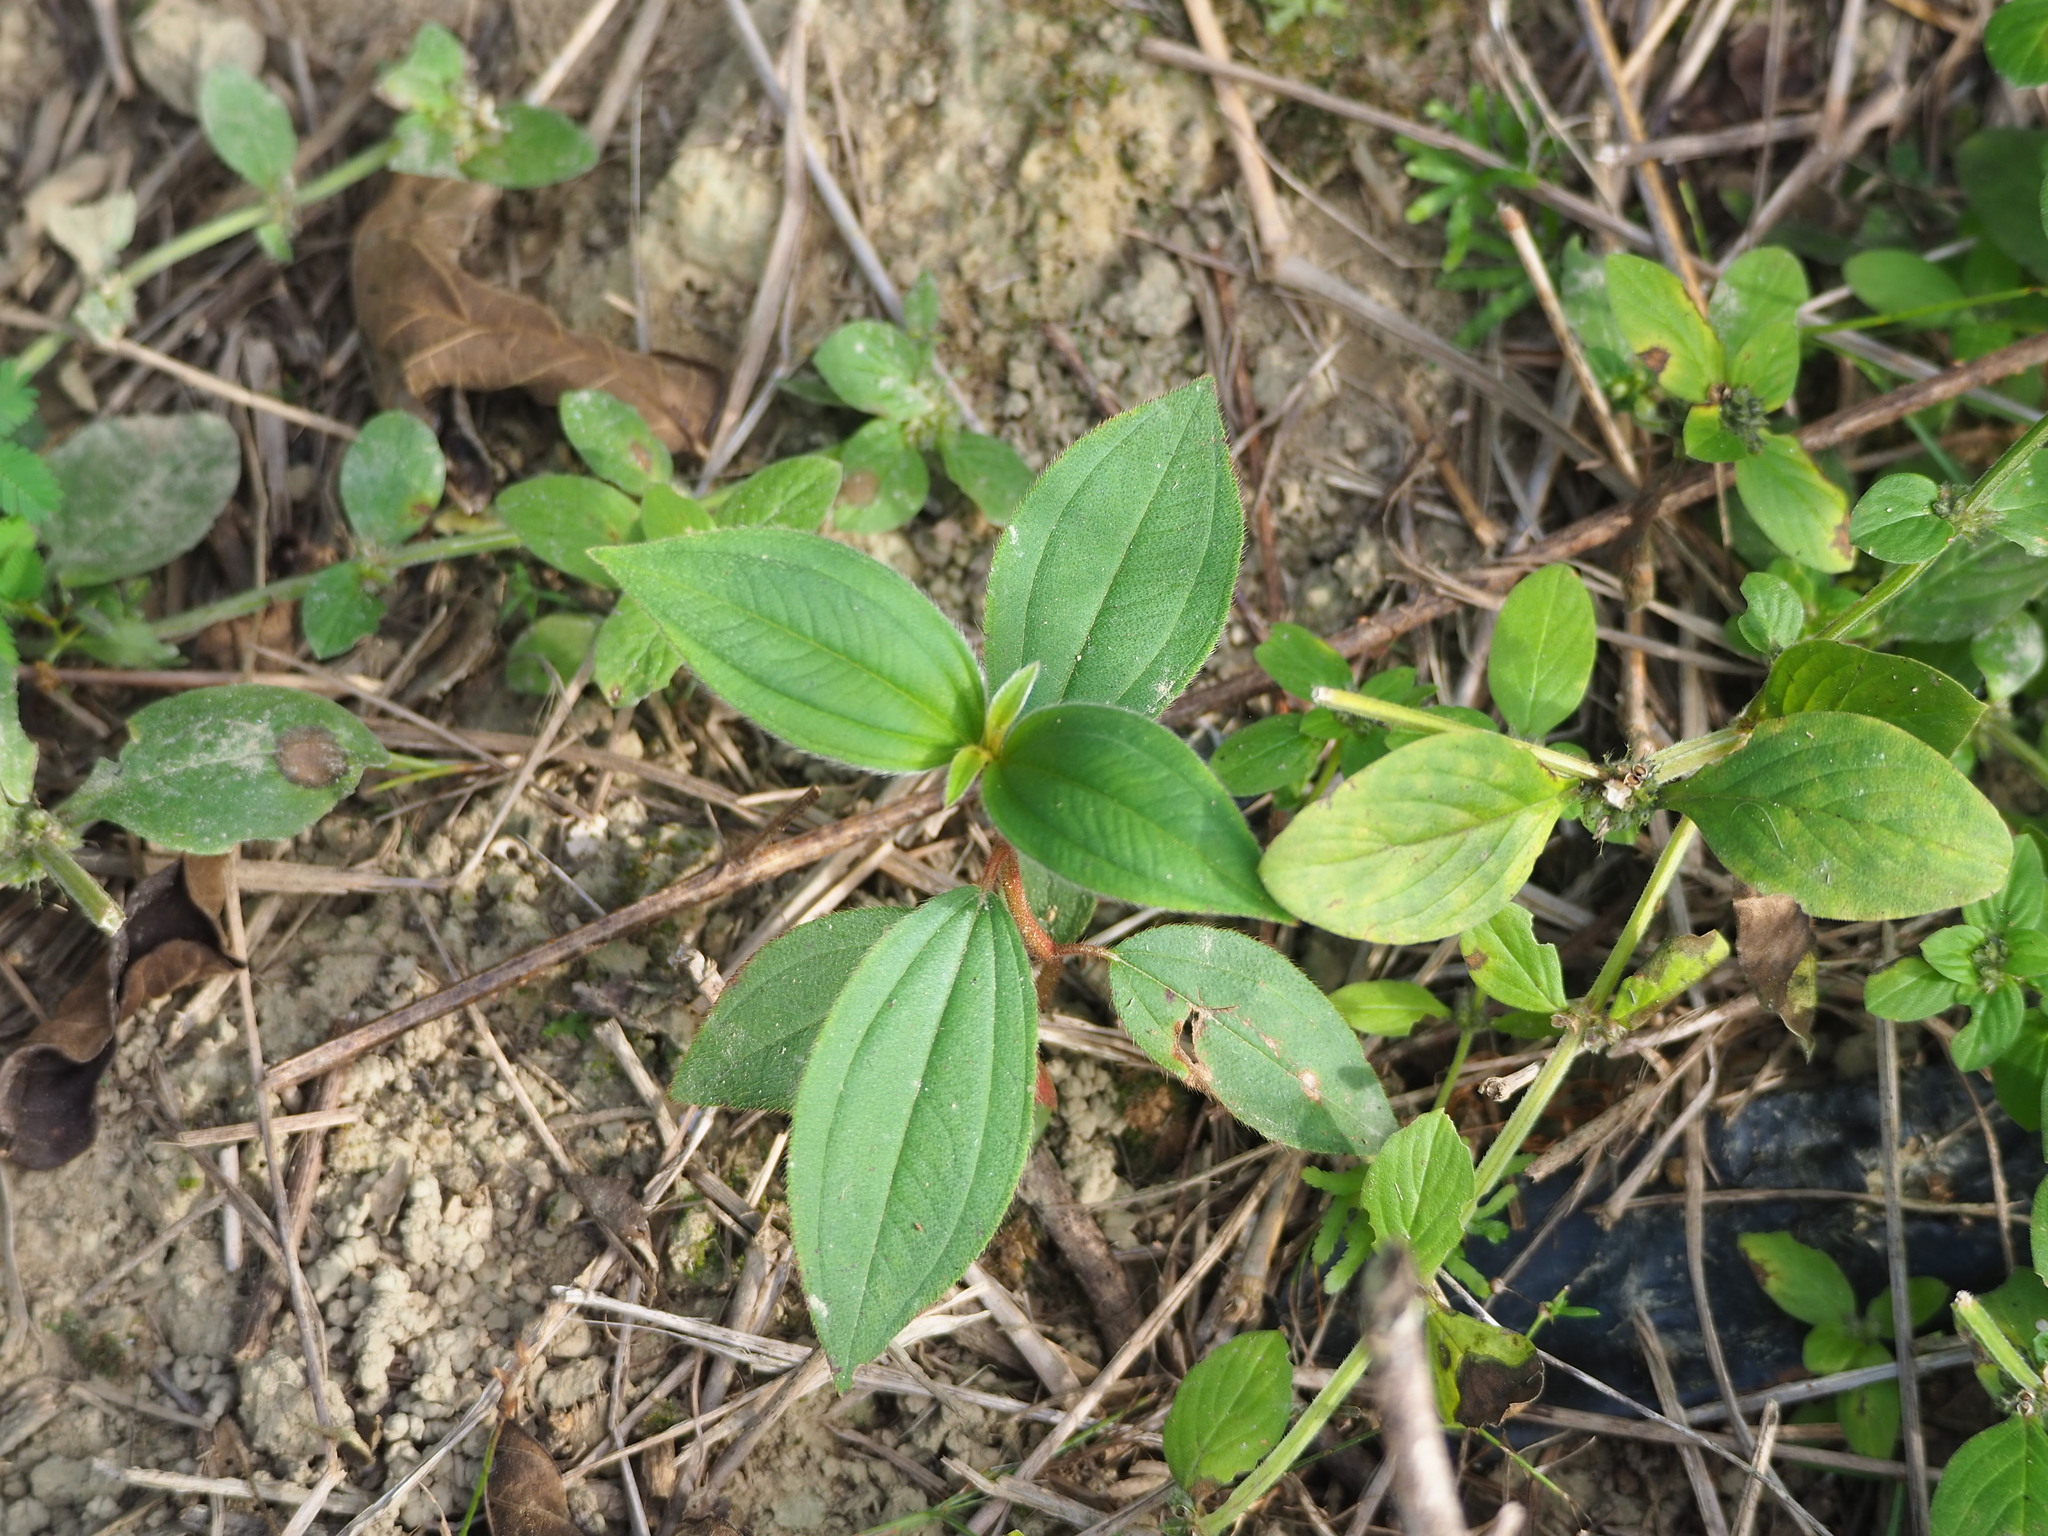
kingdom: Plantae
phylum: Tracheophyta
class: Magnoliopsida
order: Myrtales
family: Melastomataceae
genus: Melastoma
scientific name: Melastoma malabathricum
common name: Indian-rhododendron
